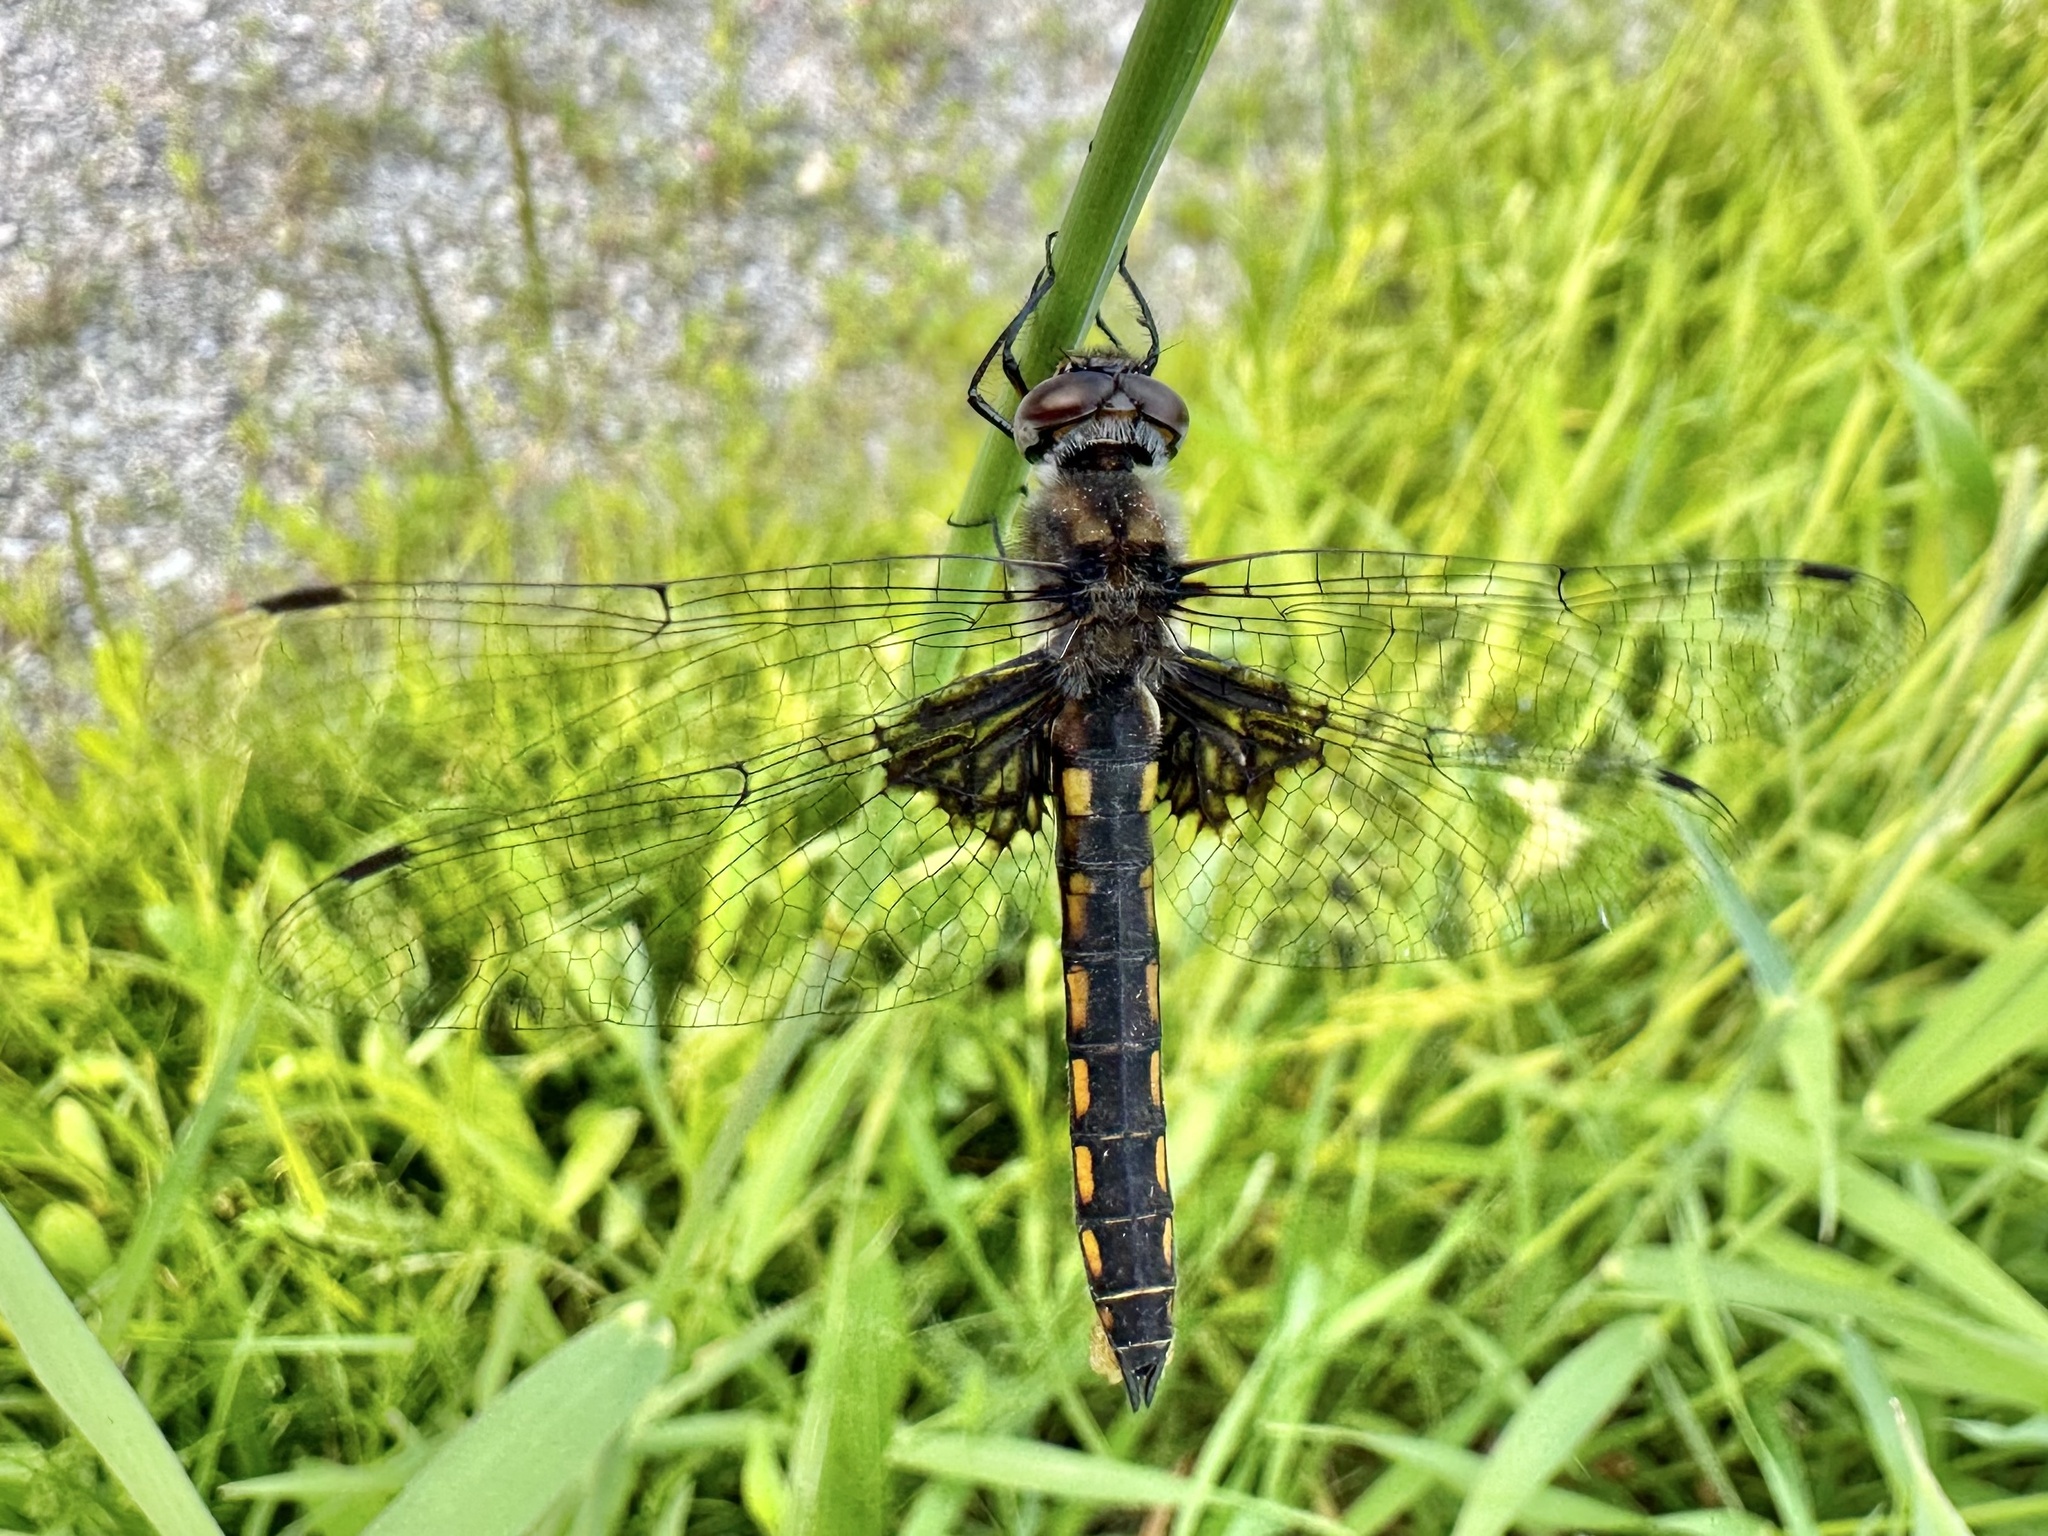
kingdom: Animalia
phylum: Arthropoda
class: Insecta
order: Odonata
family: Corduliidae
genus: Epitheca
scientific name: Epitheca cynosura
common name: Common baskettail
